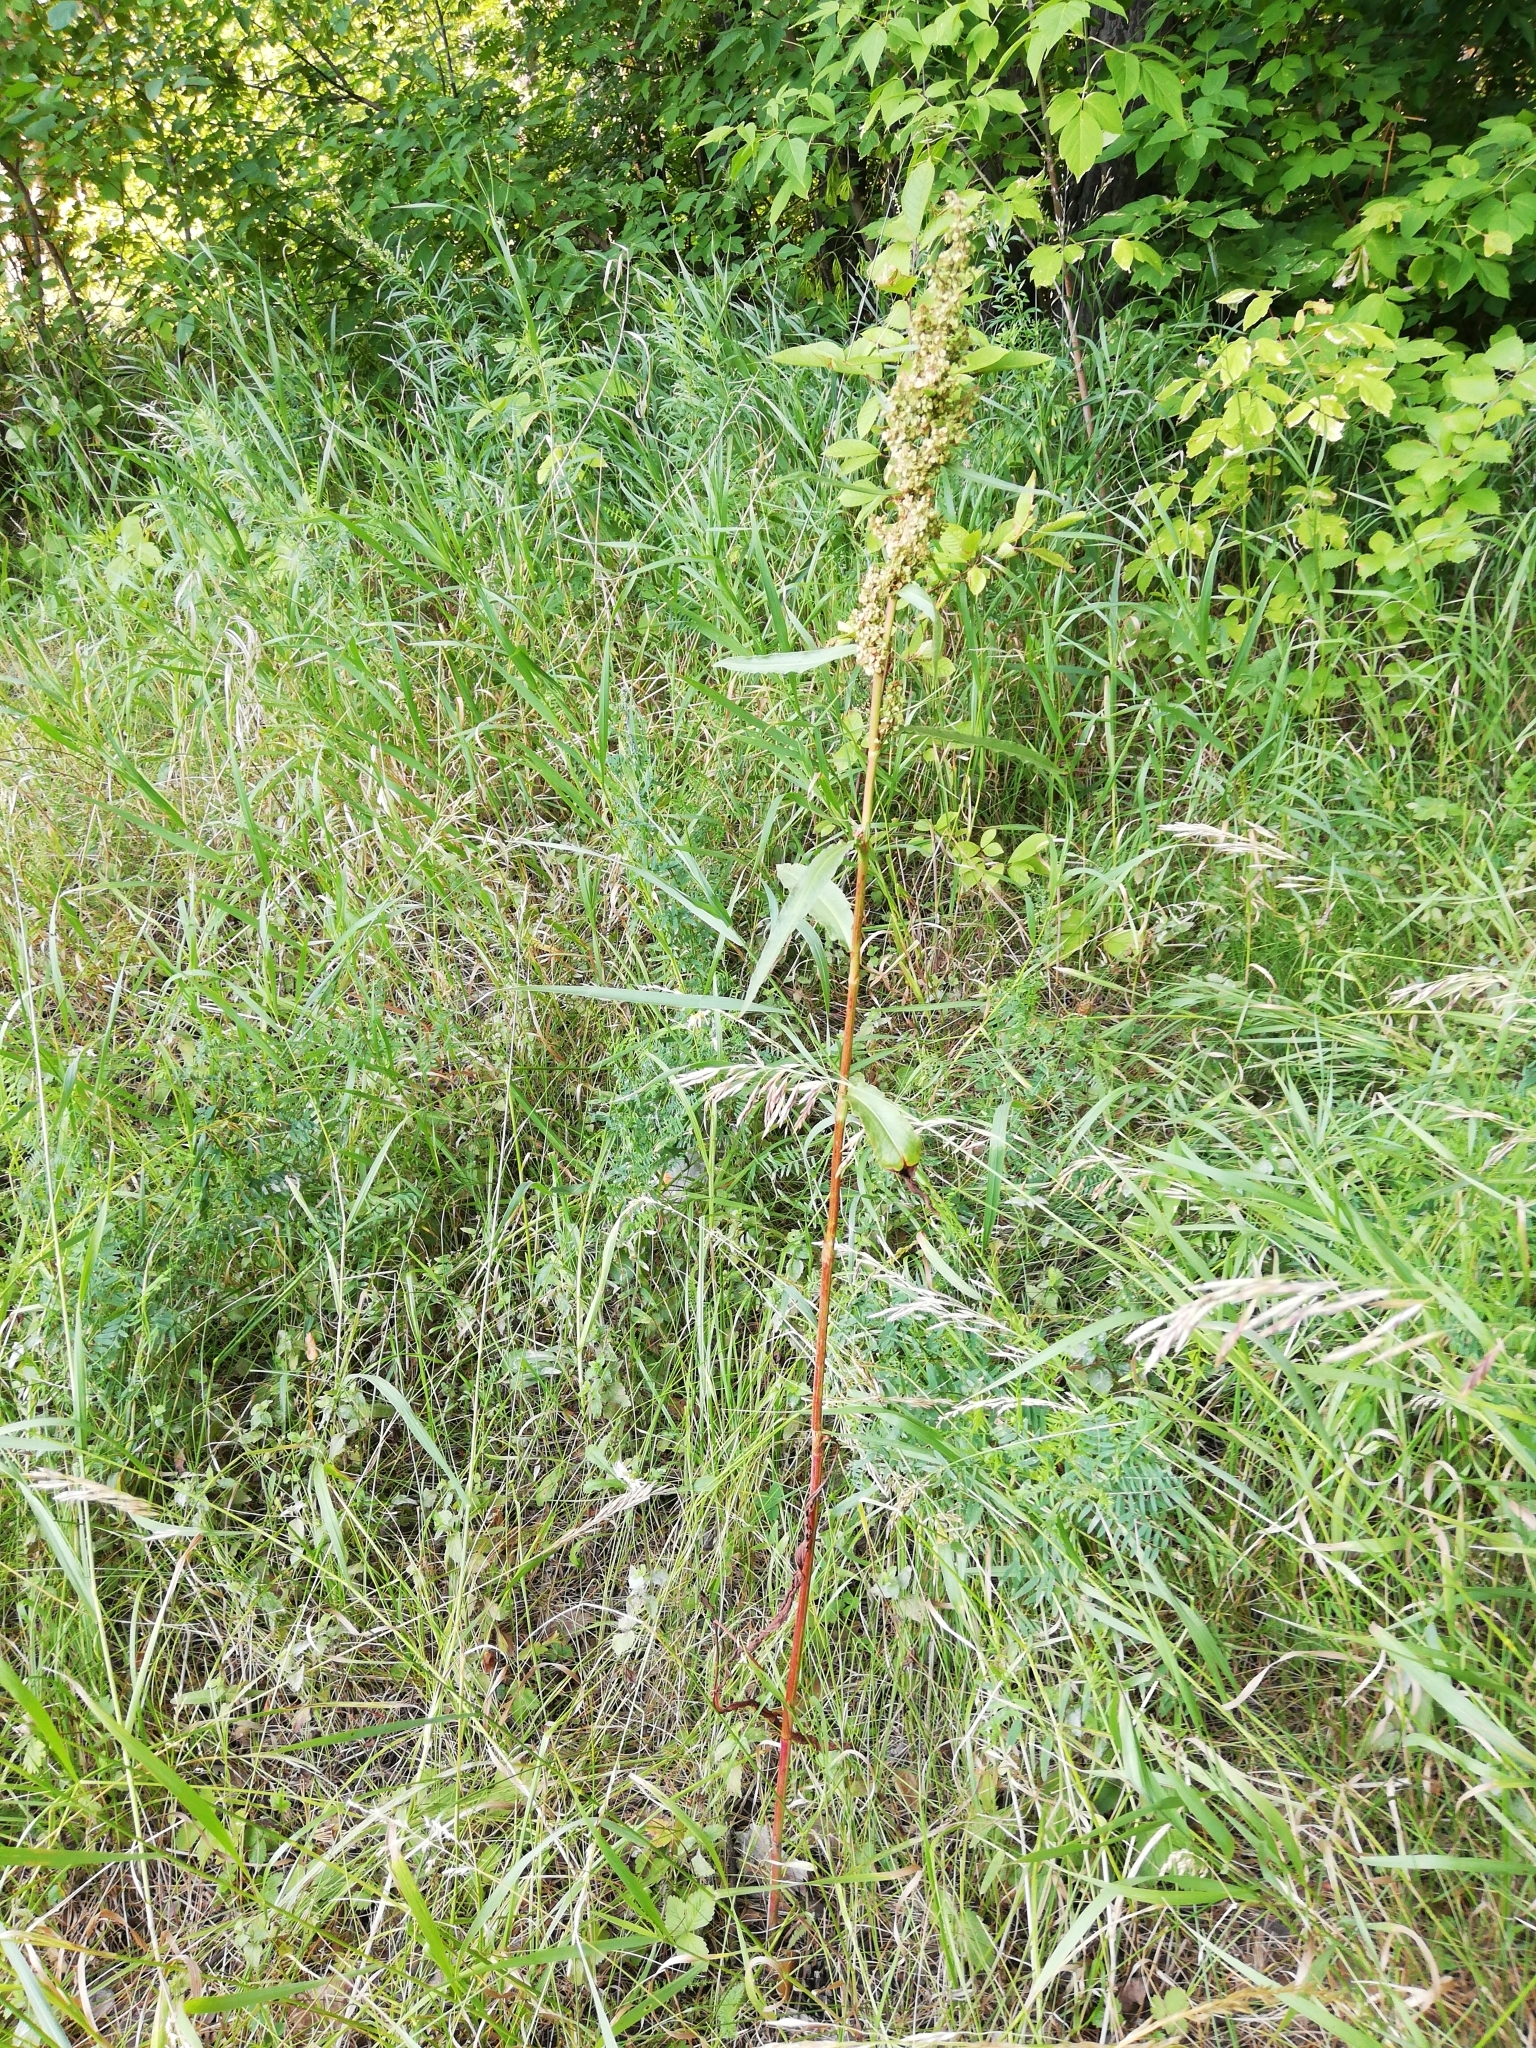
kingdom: Plantae
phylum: Tracheophyta
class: Magnoliopsida
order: Caryophyllales
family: Polygonaceae
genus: Rumex
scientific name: Rumex pseudonatronatus
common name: Field dock
